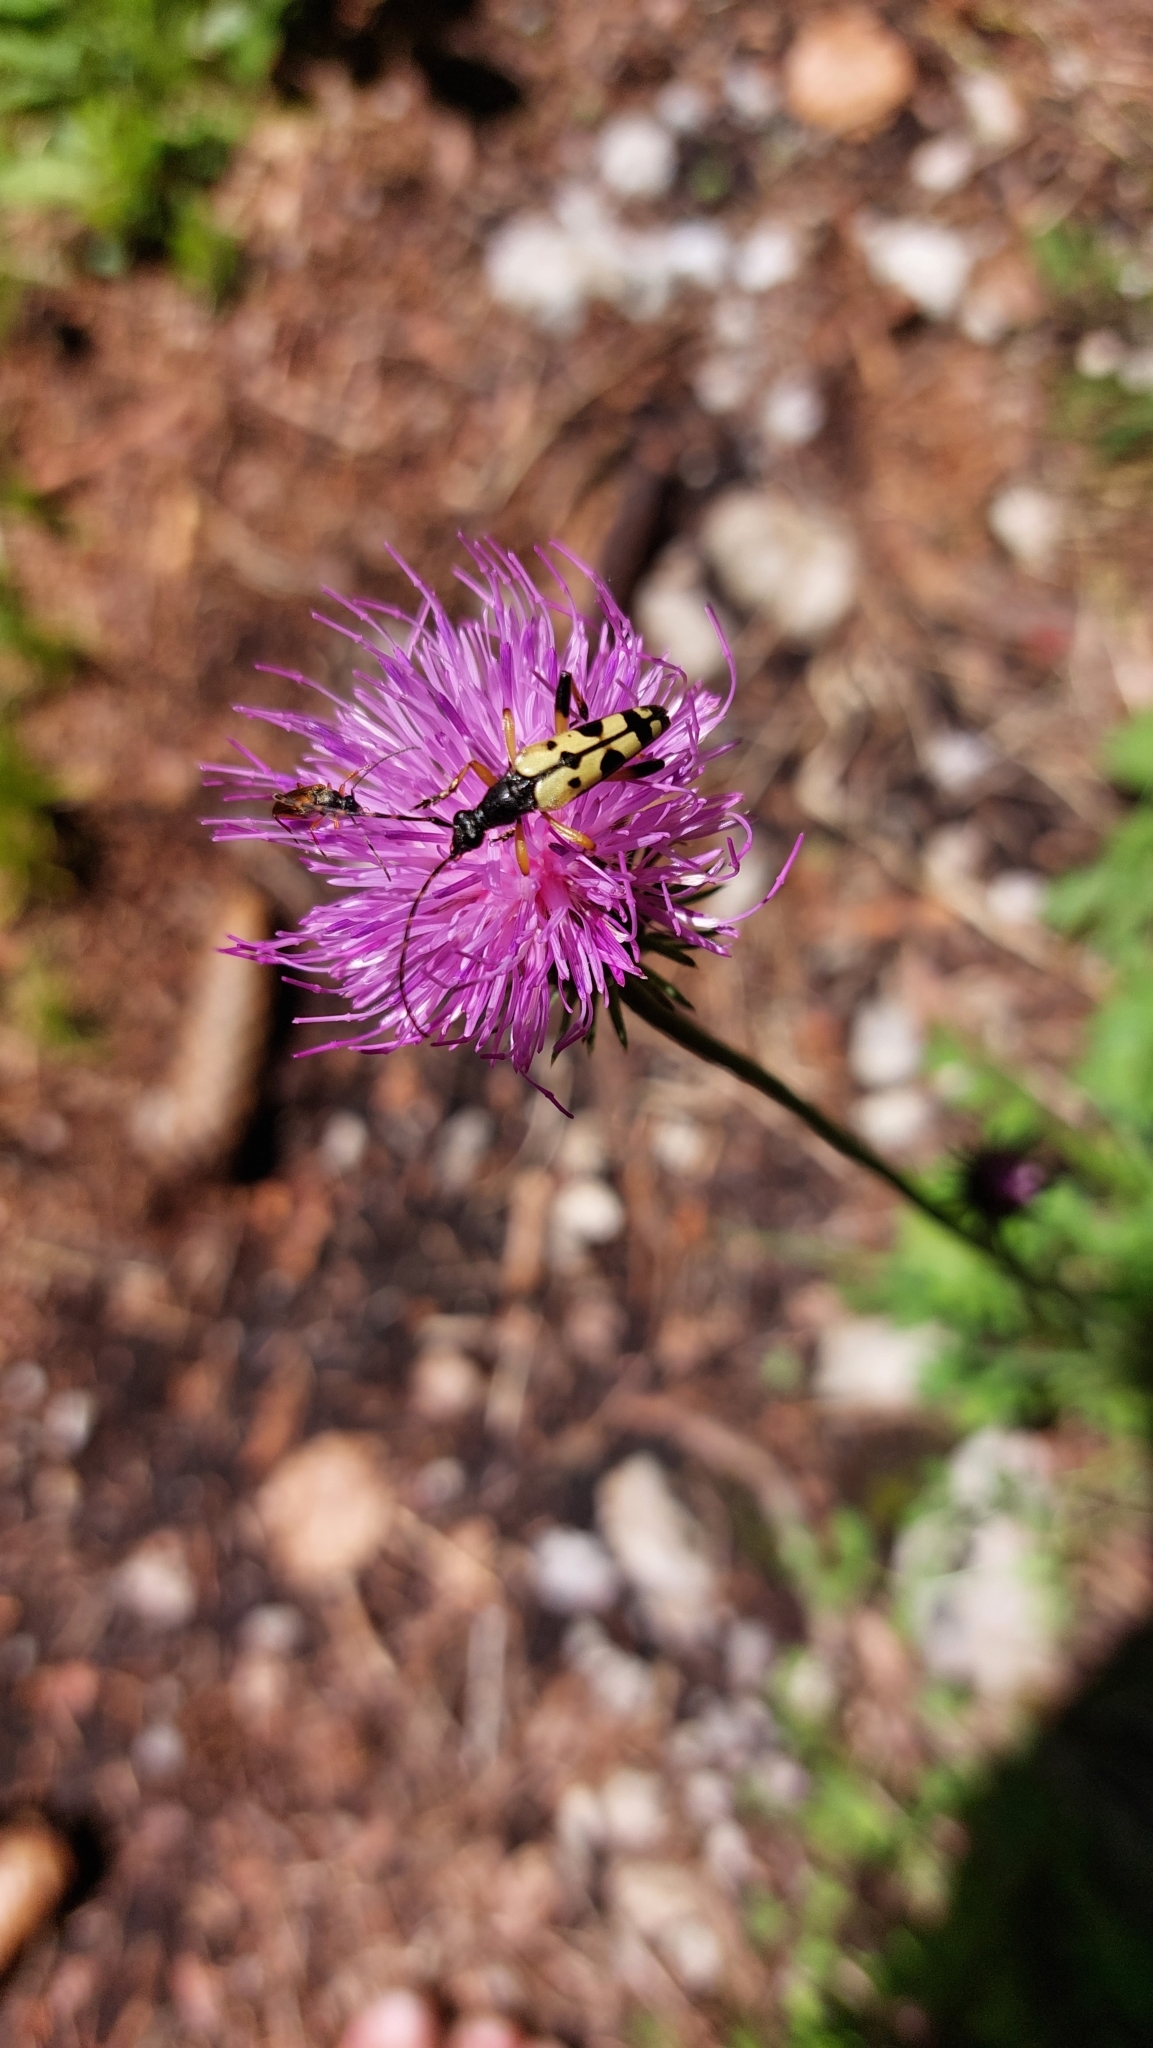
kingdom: Animalia
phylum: Arthropoda
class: Insecta
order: Coleoptera
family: Cerambycidae
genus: Rutpela
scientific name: Rutpela maculata
